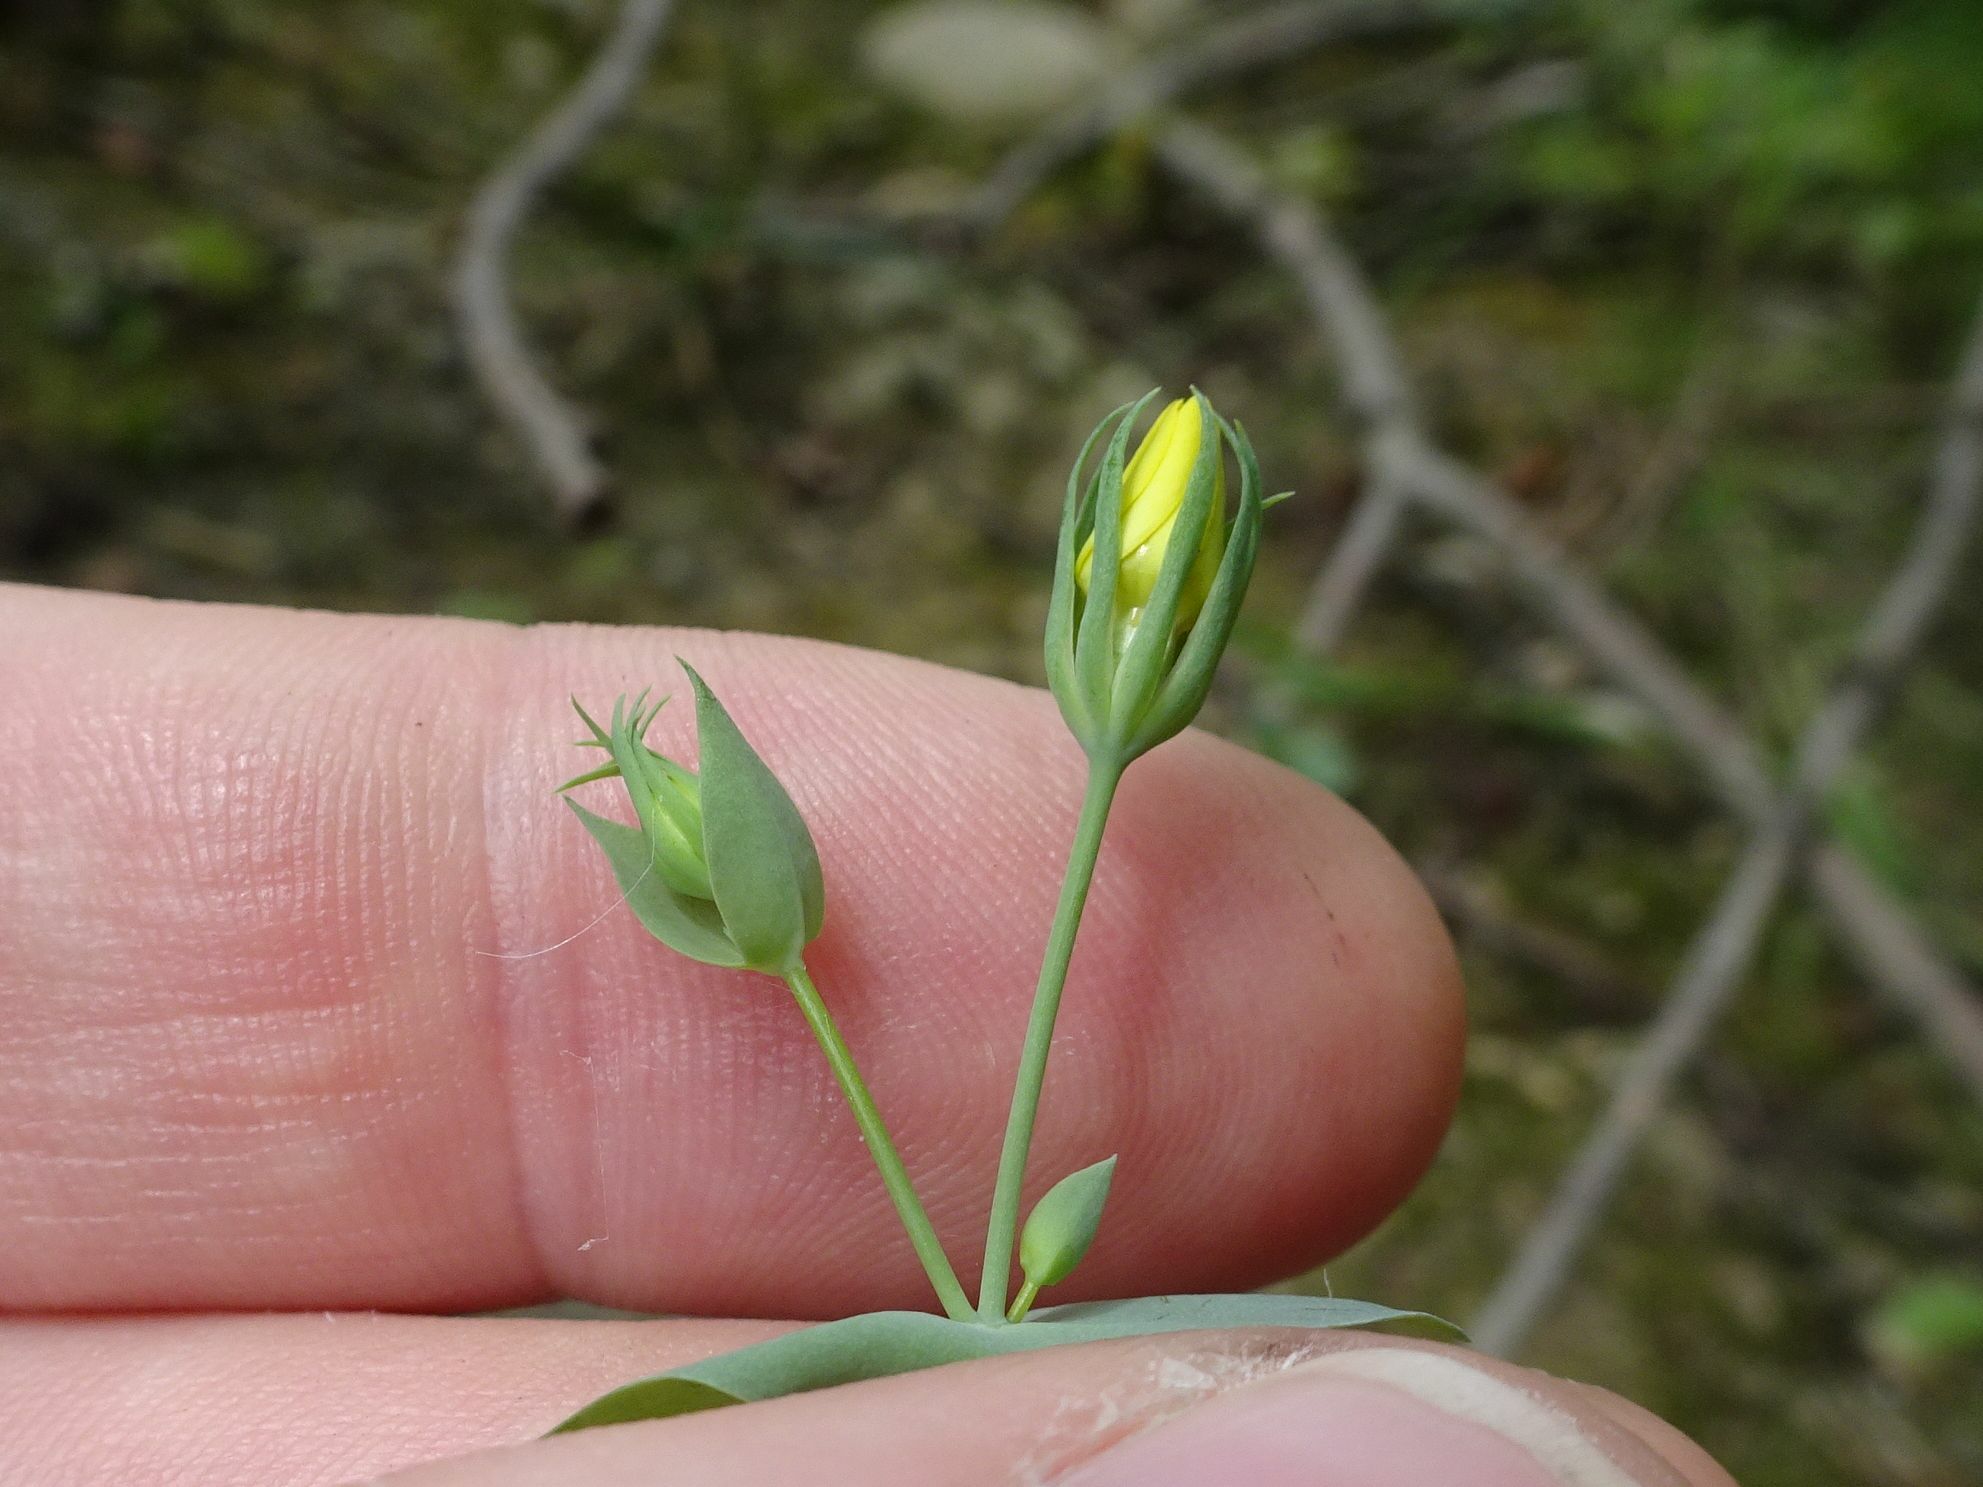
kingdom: Plantae
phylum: Tracheophyta
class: Magnoliopsida
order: Gentianales
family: Gentianaceae
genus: Blackstonia
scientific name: Blackstonia perfoliata
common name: Yellow-wort
